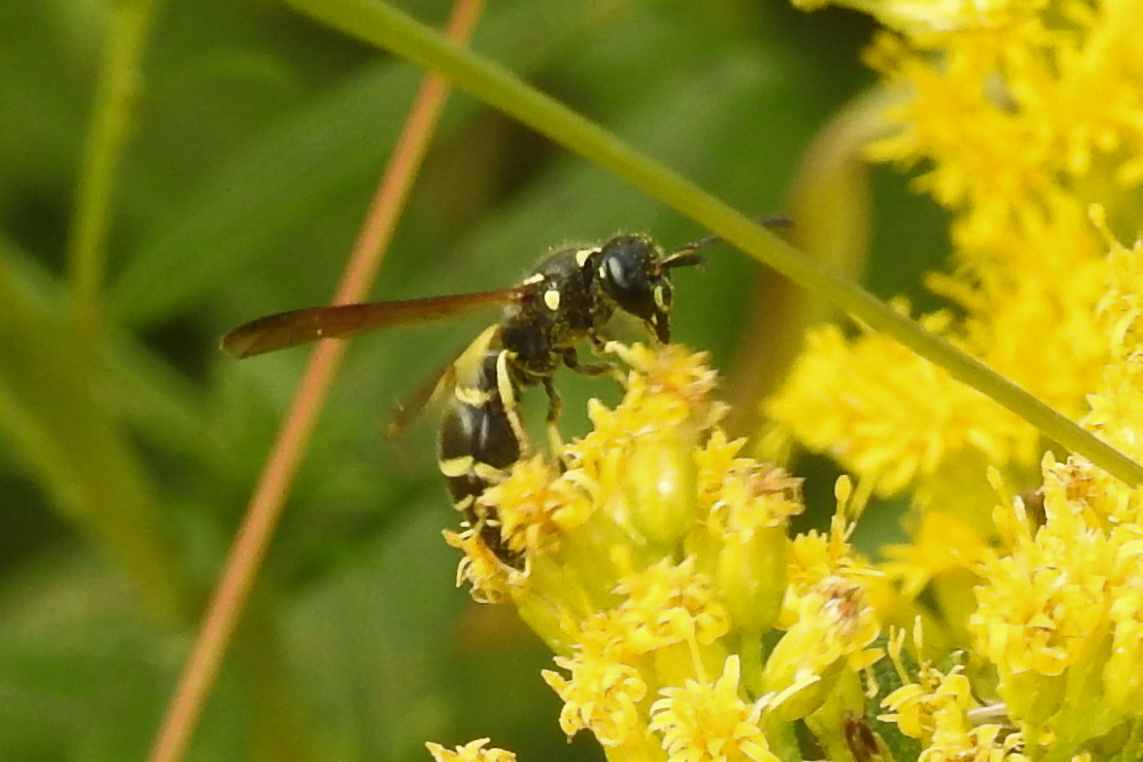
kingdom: Animalia
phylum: Arthropoda
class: Insecta
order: Hymenoptera
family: Vespidae
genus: Ancistrocerus
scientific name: Ancistrocerus adiabatus
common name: Bramble mason wasp
